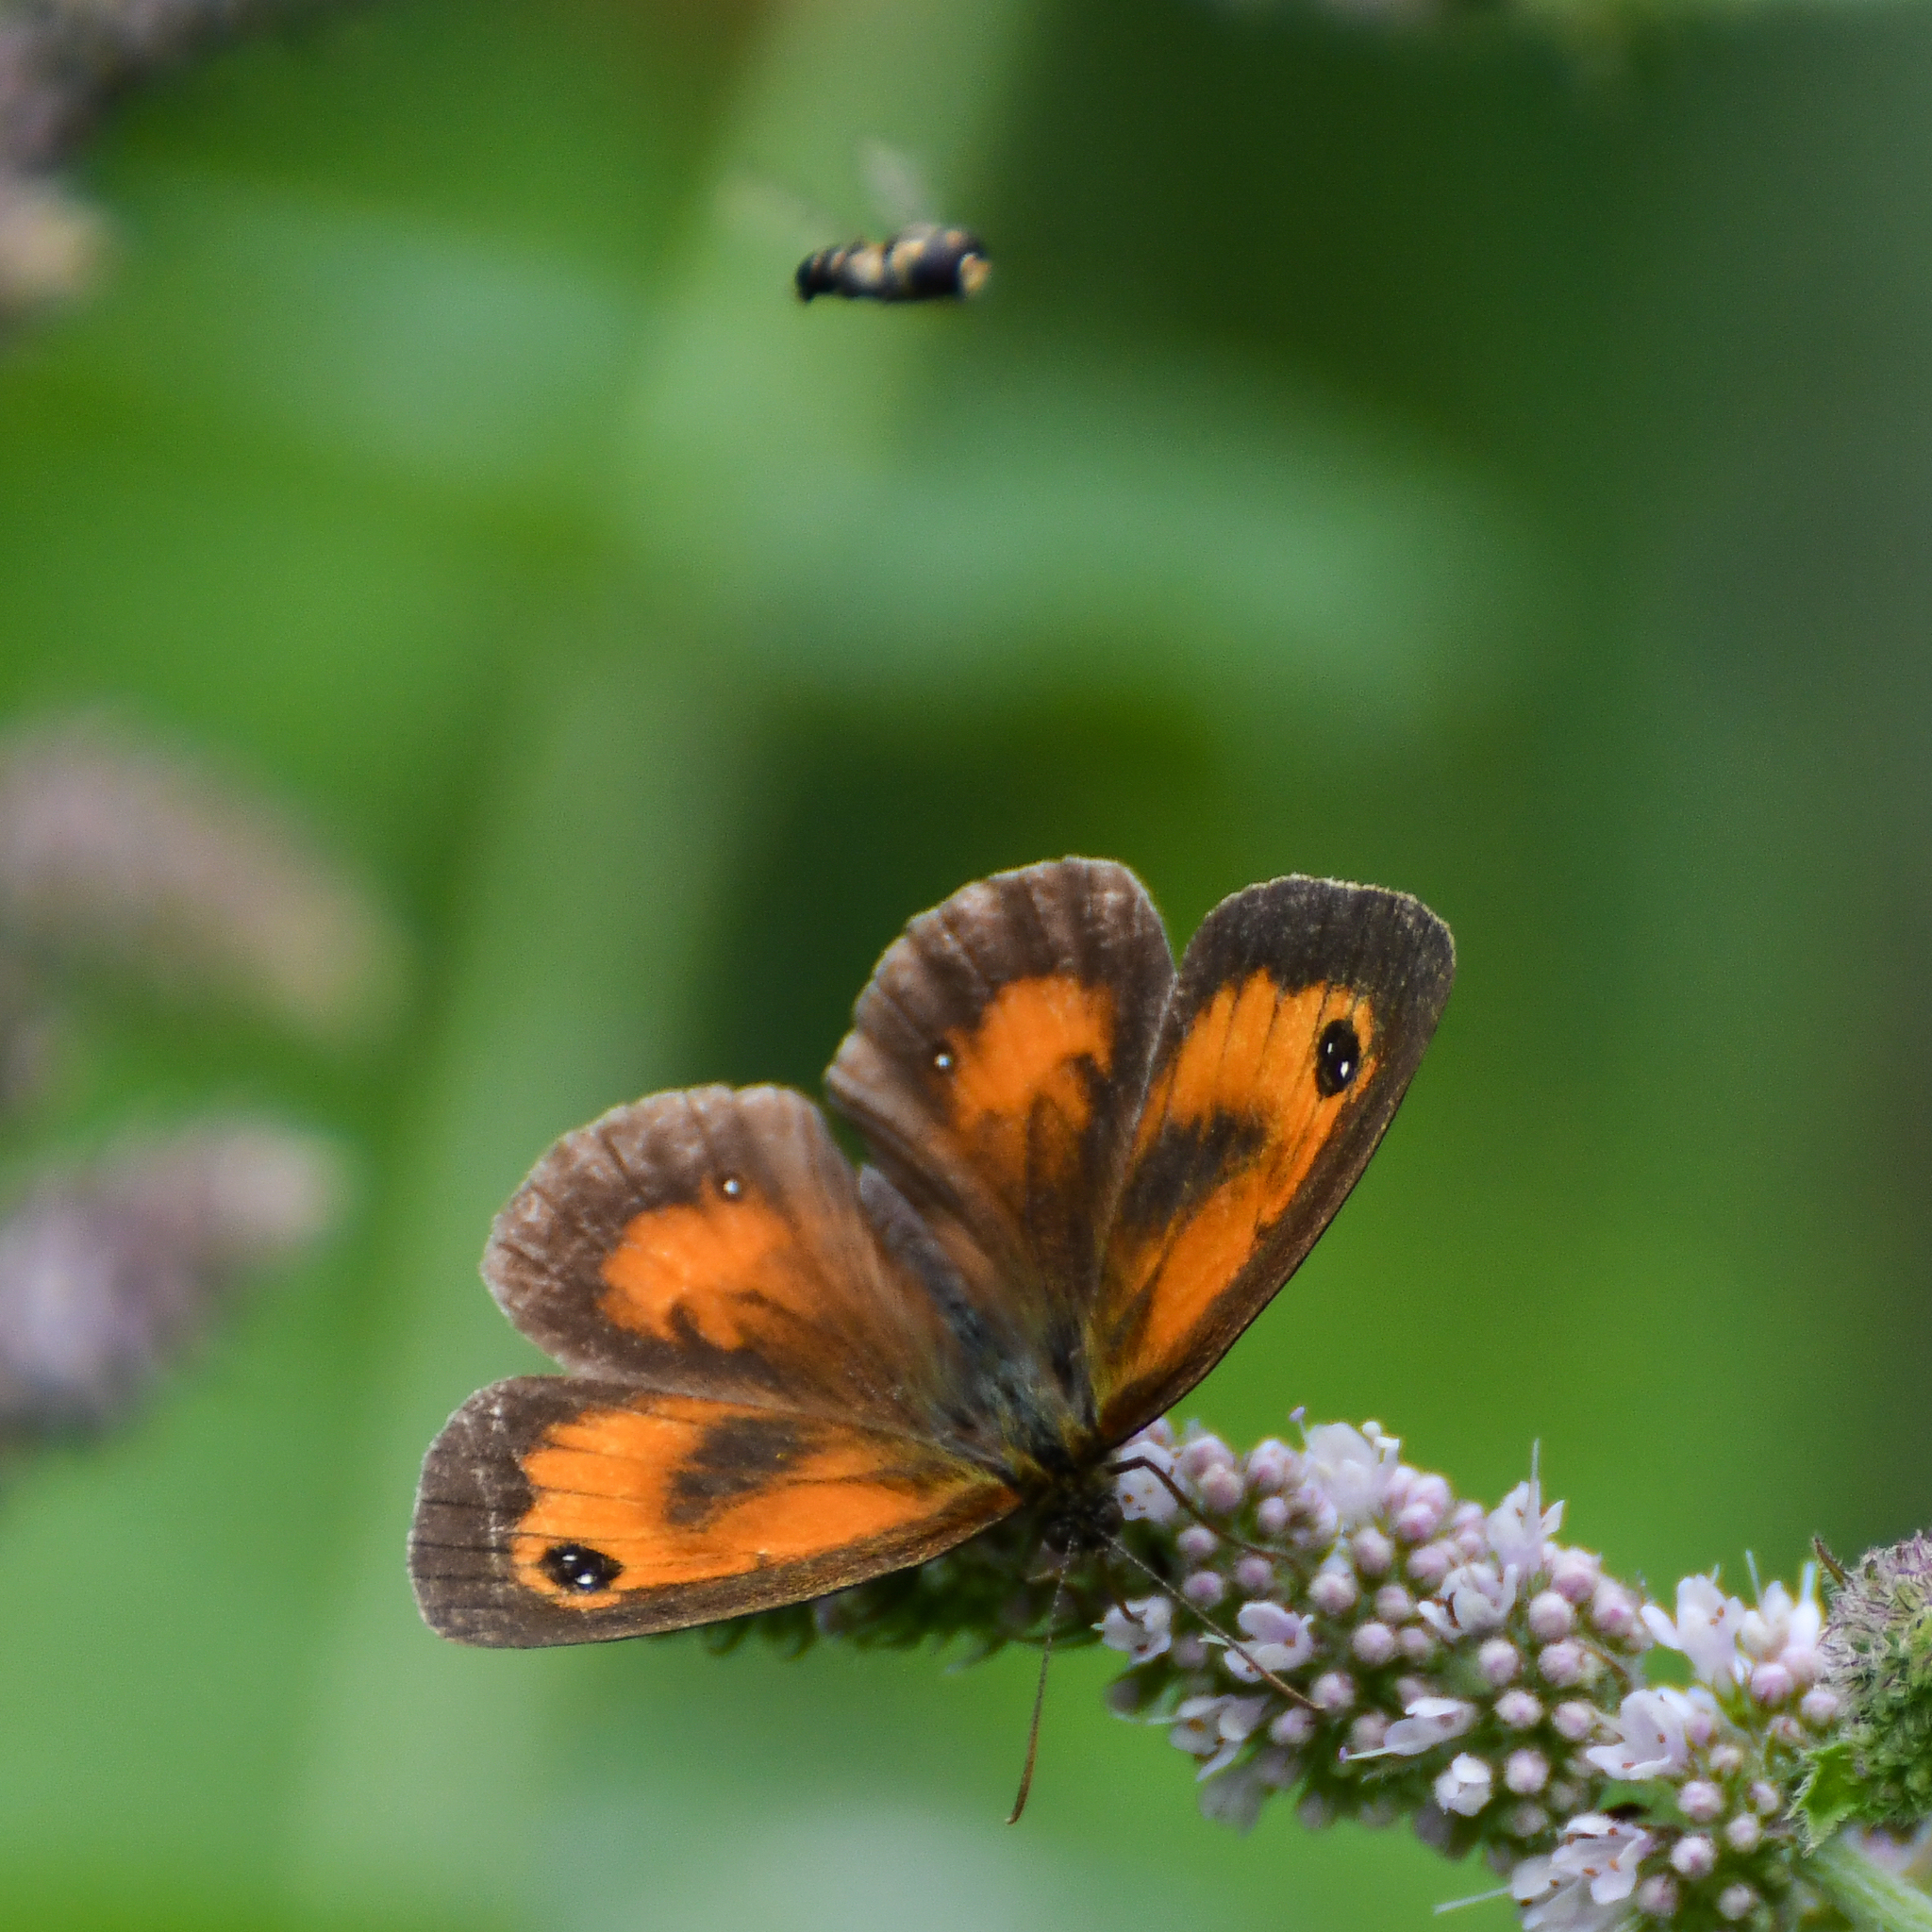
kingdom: Animalia
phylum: Arthropoda
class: Insecta
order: Lepidoptera
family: Nymphalidae
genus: Pyronia
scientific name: Pyronia tithonus
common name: Gatekeeper
